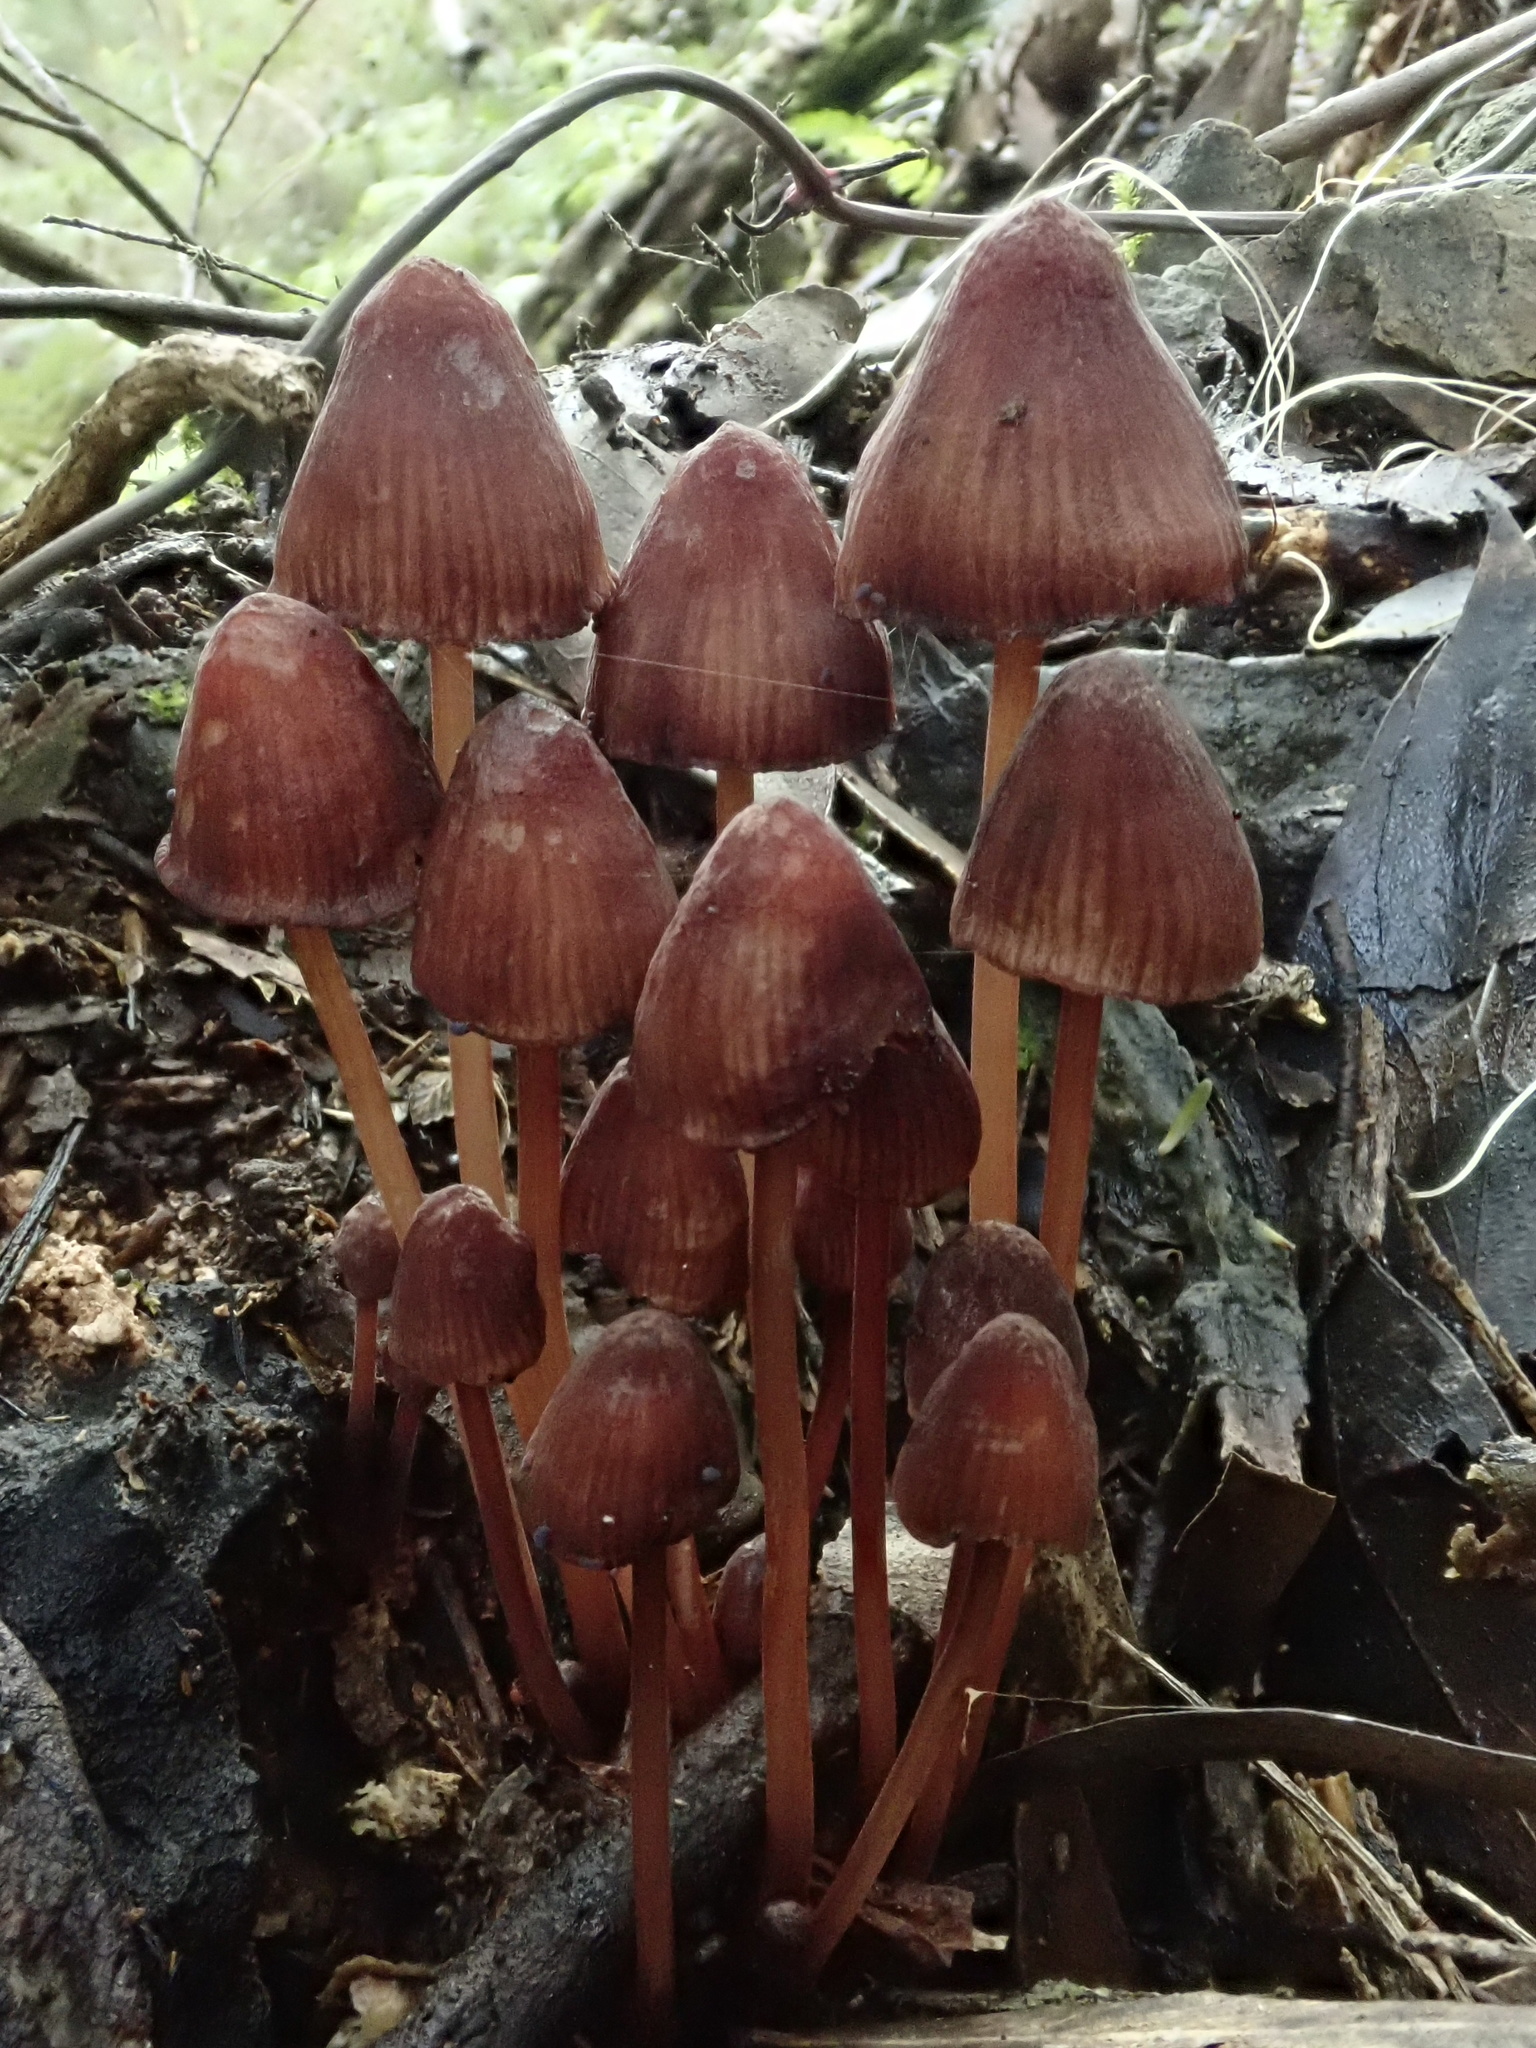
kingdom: Fungi
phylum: Basidiomycota
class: Agaricomycetes
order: Agaricales
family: Mycenaceae
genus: Mycena
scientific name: Mycena kuurkacea
